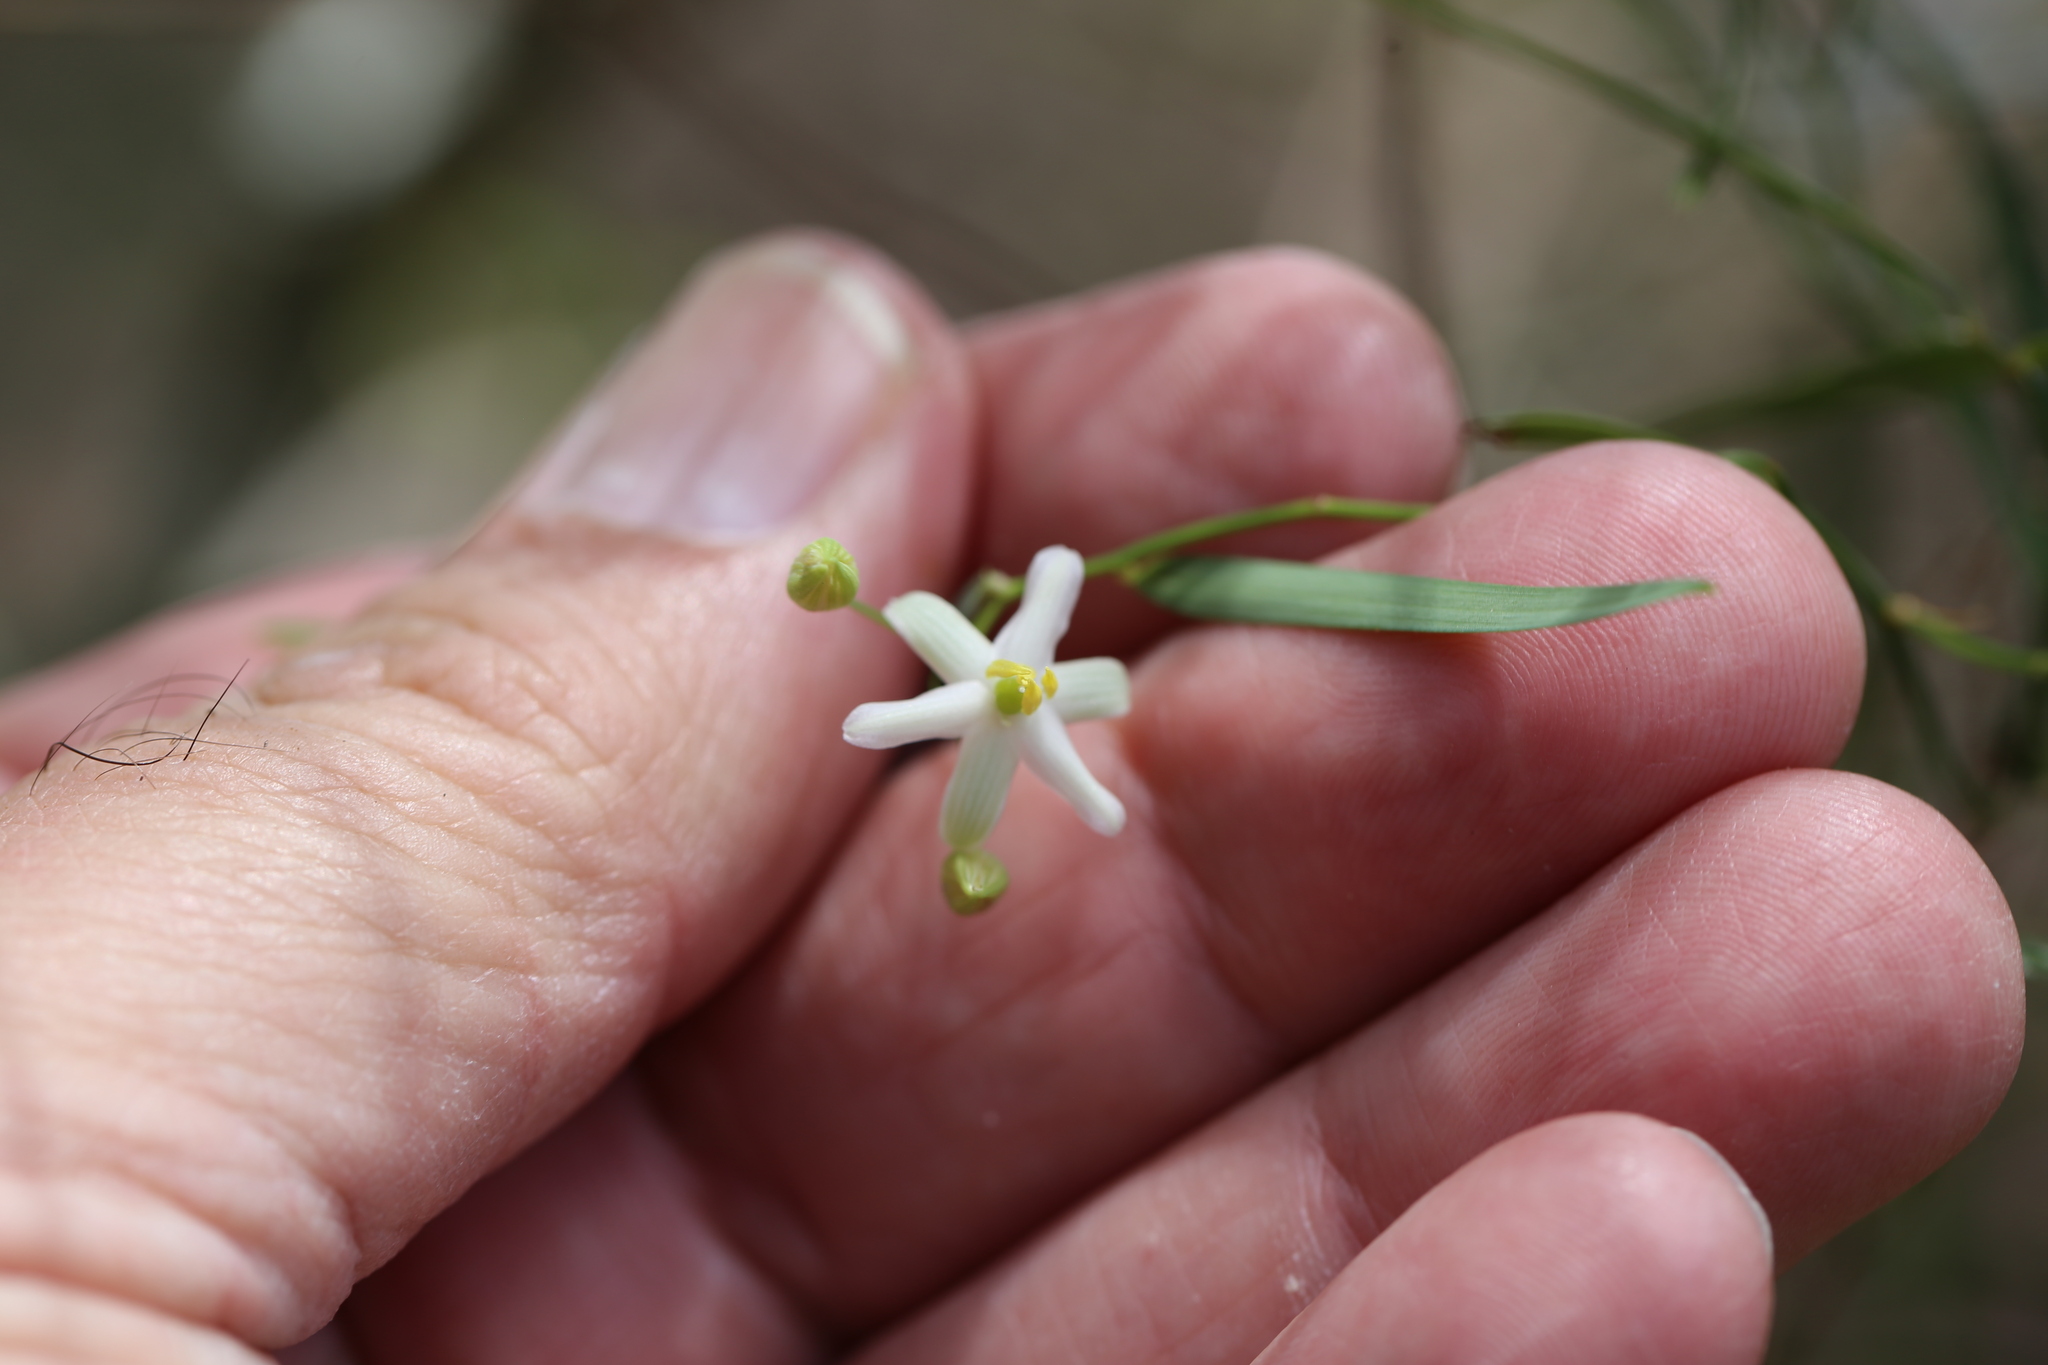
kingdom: Plantae
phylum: Tracheophyta
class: Liliopsida
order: Asparagales
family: Asphodelaceae
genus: Geitonoplesium
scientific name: Geitonoplesium cymosum
